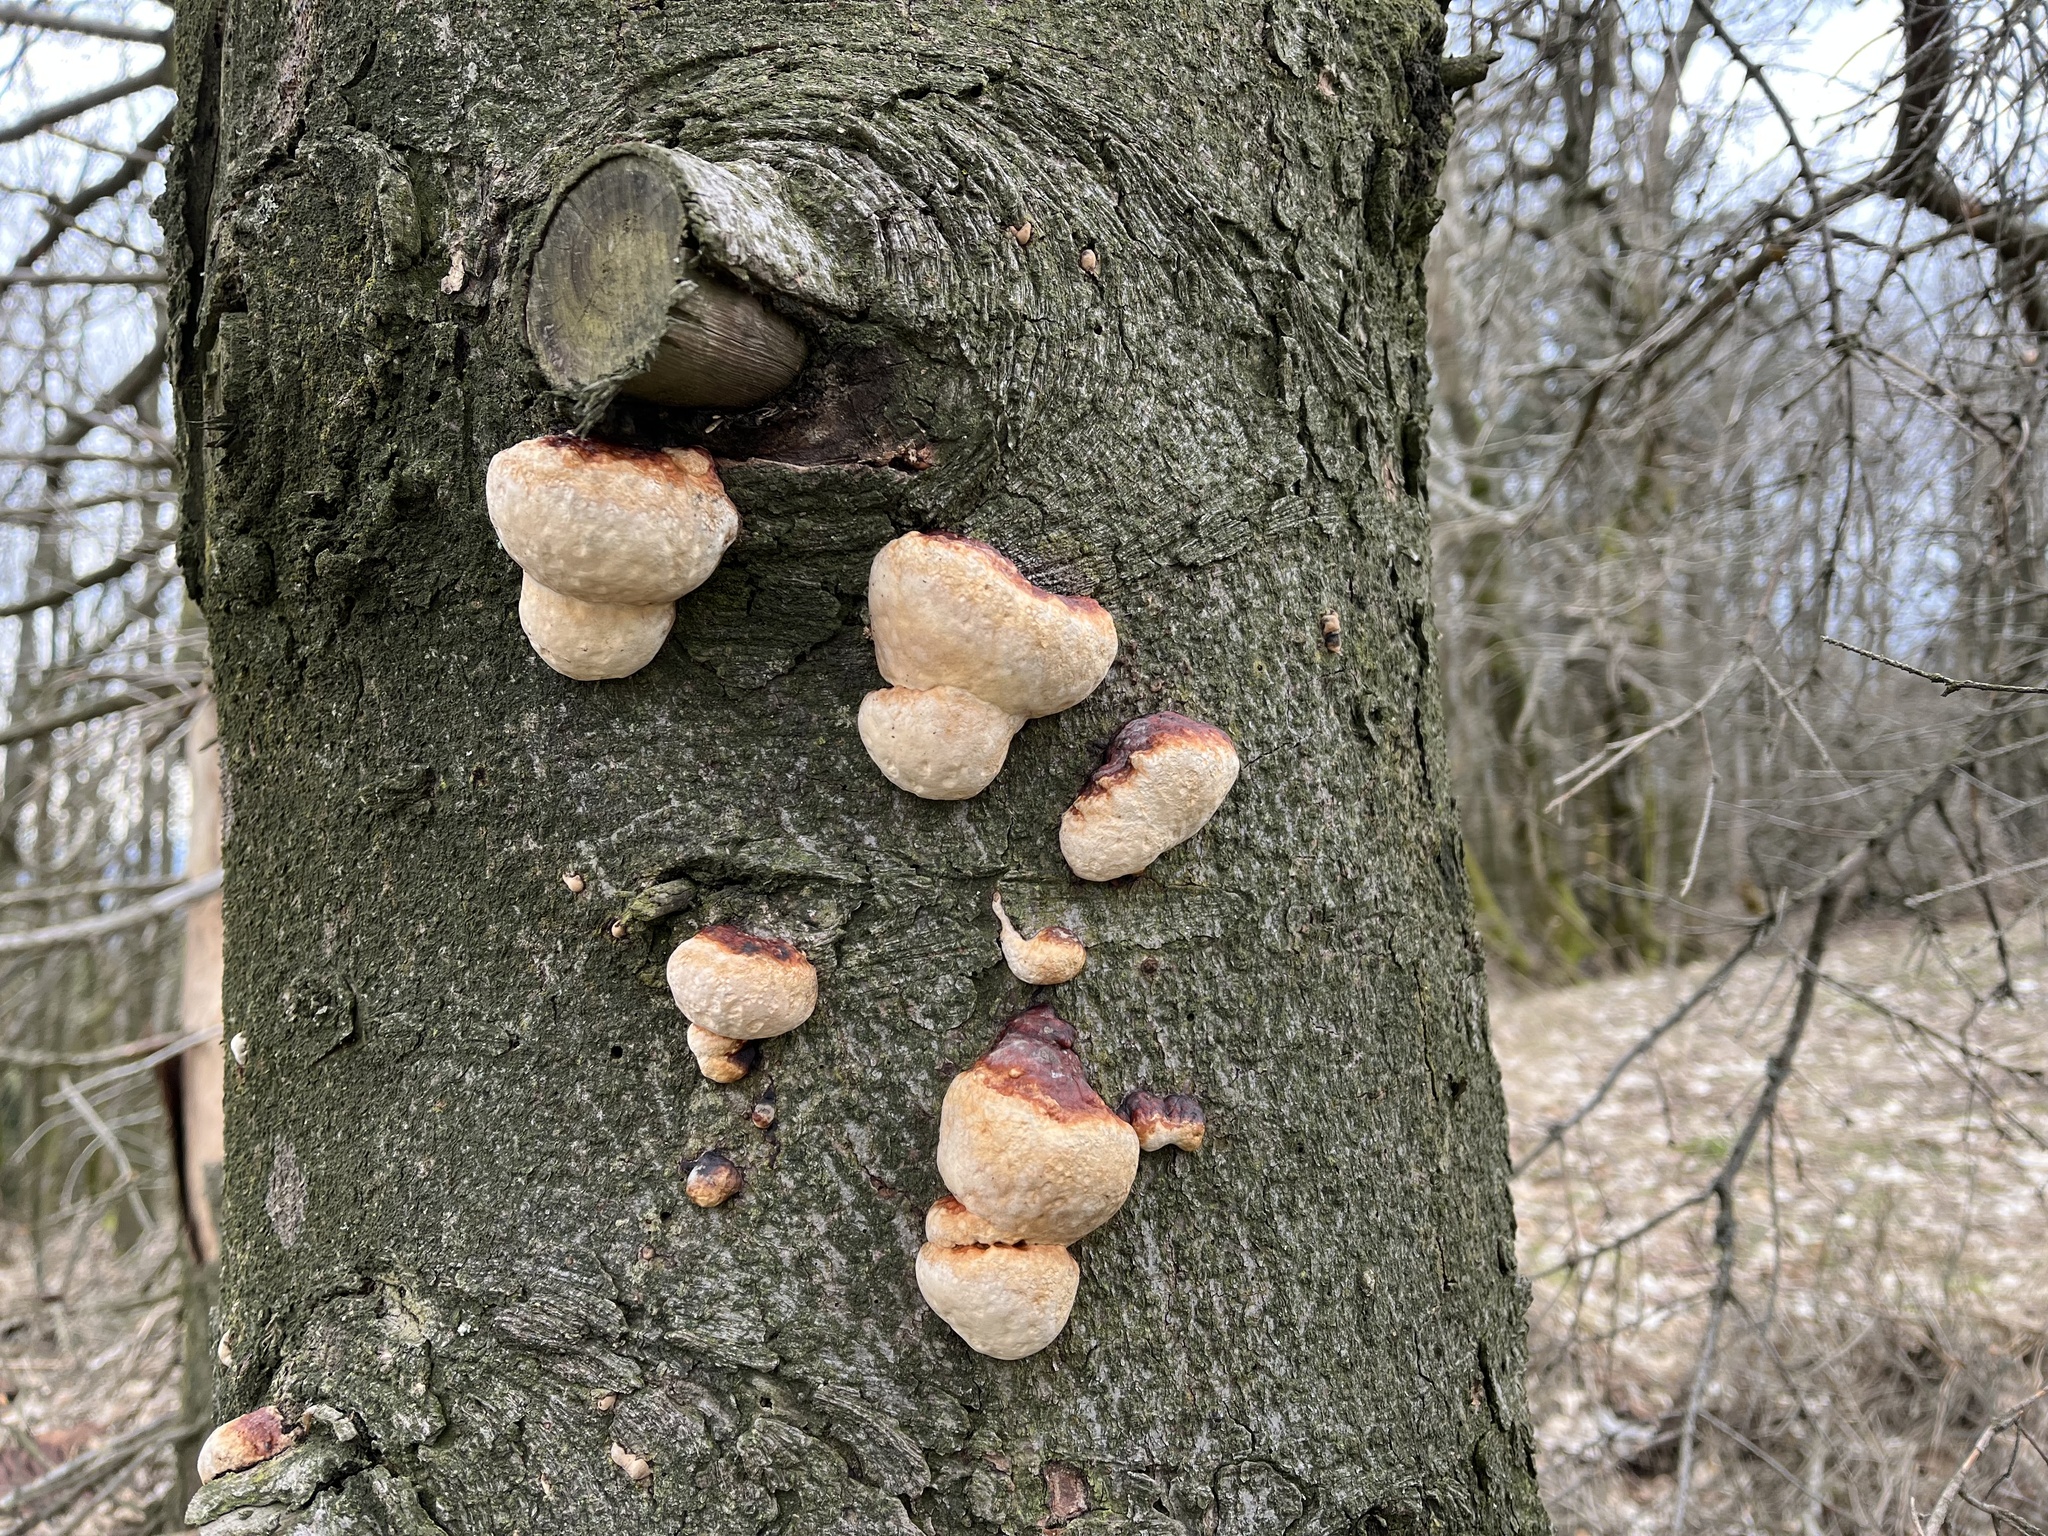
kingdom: Fungi
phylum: Basidiomycota
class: Agaricomycetes
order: Polyporales
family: Fomitopsidaceae
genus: Fomitopsis
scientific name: Fomitopsis pinicola
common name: Red-belted bracket
